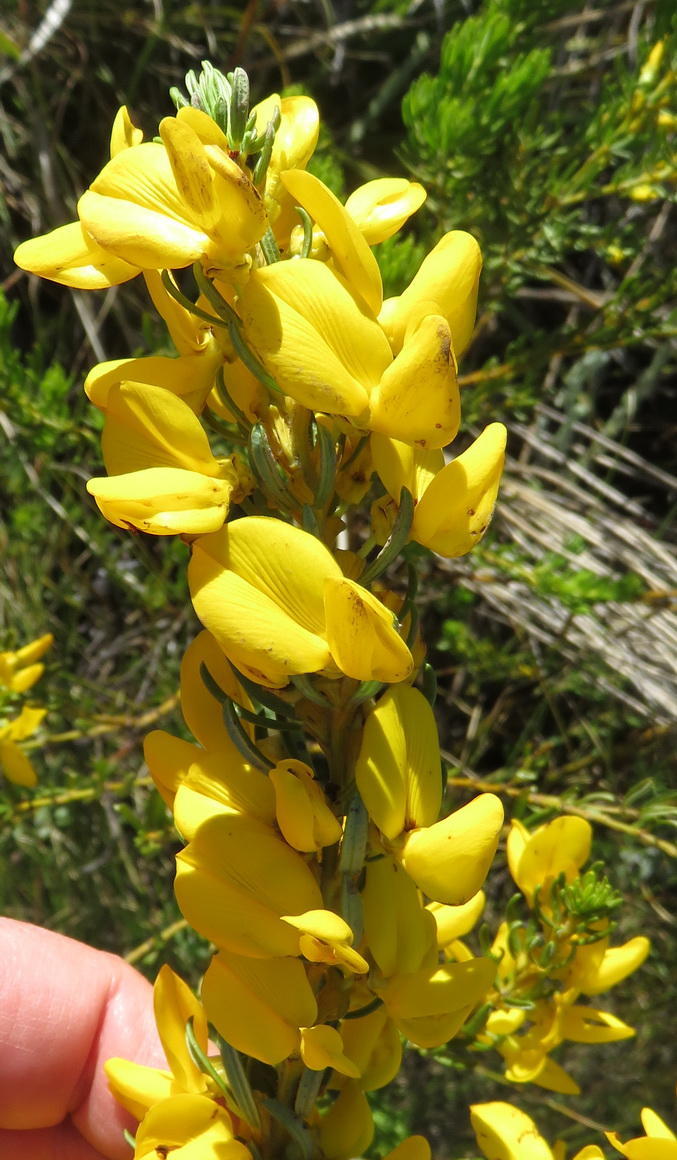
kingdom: Plantae
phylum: Tracheophyta
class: Magnoliopsida
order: Fabales
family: Fabaceae
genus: Cyclopia
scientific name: Cyclopia plicata
